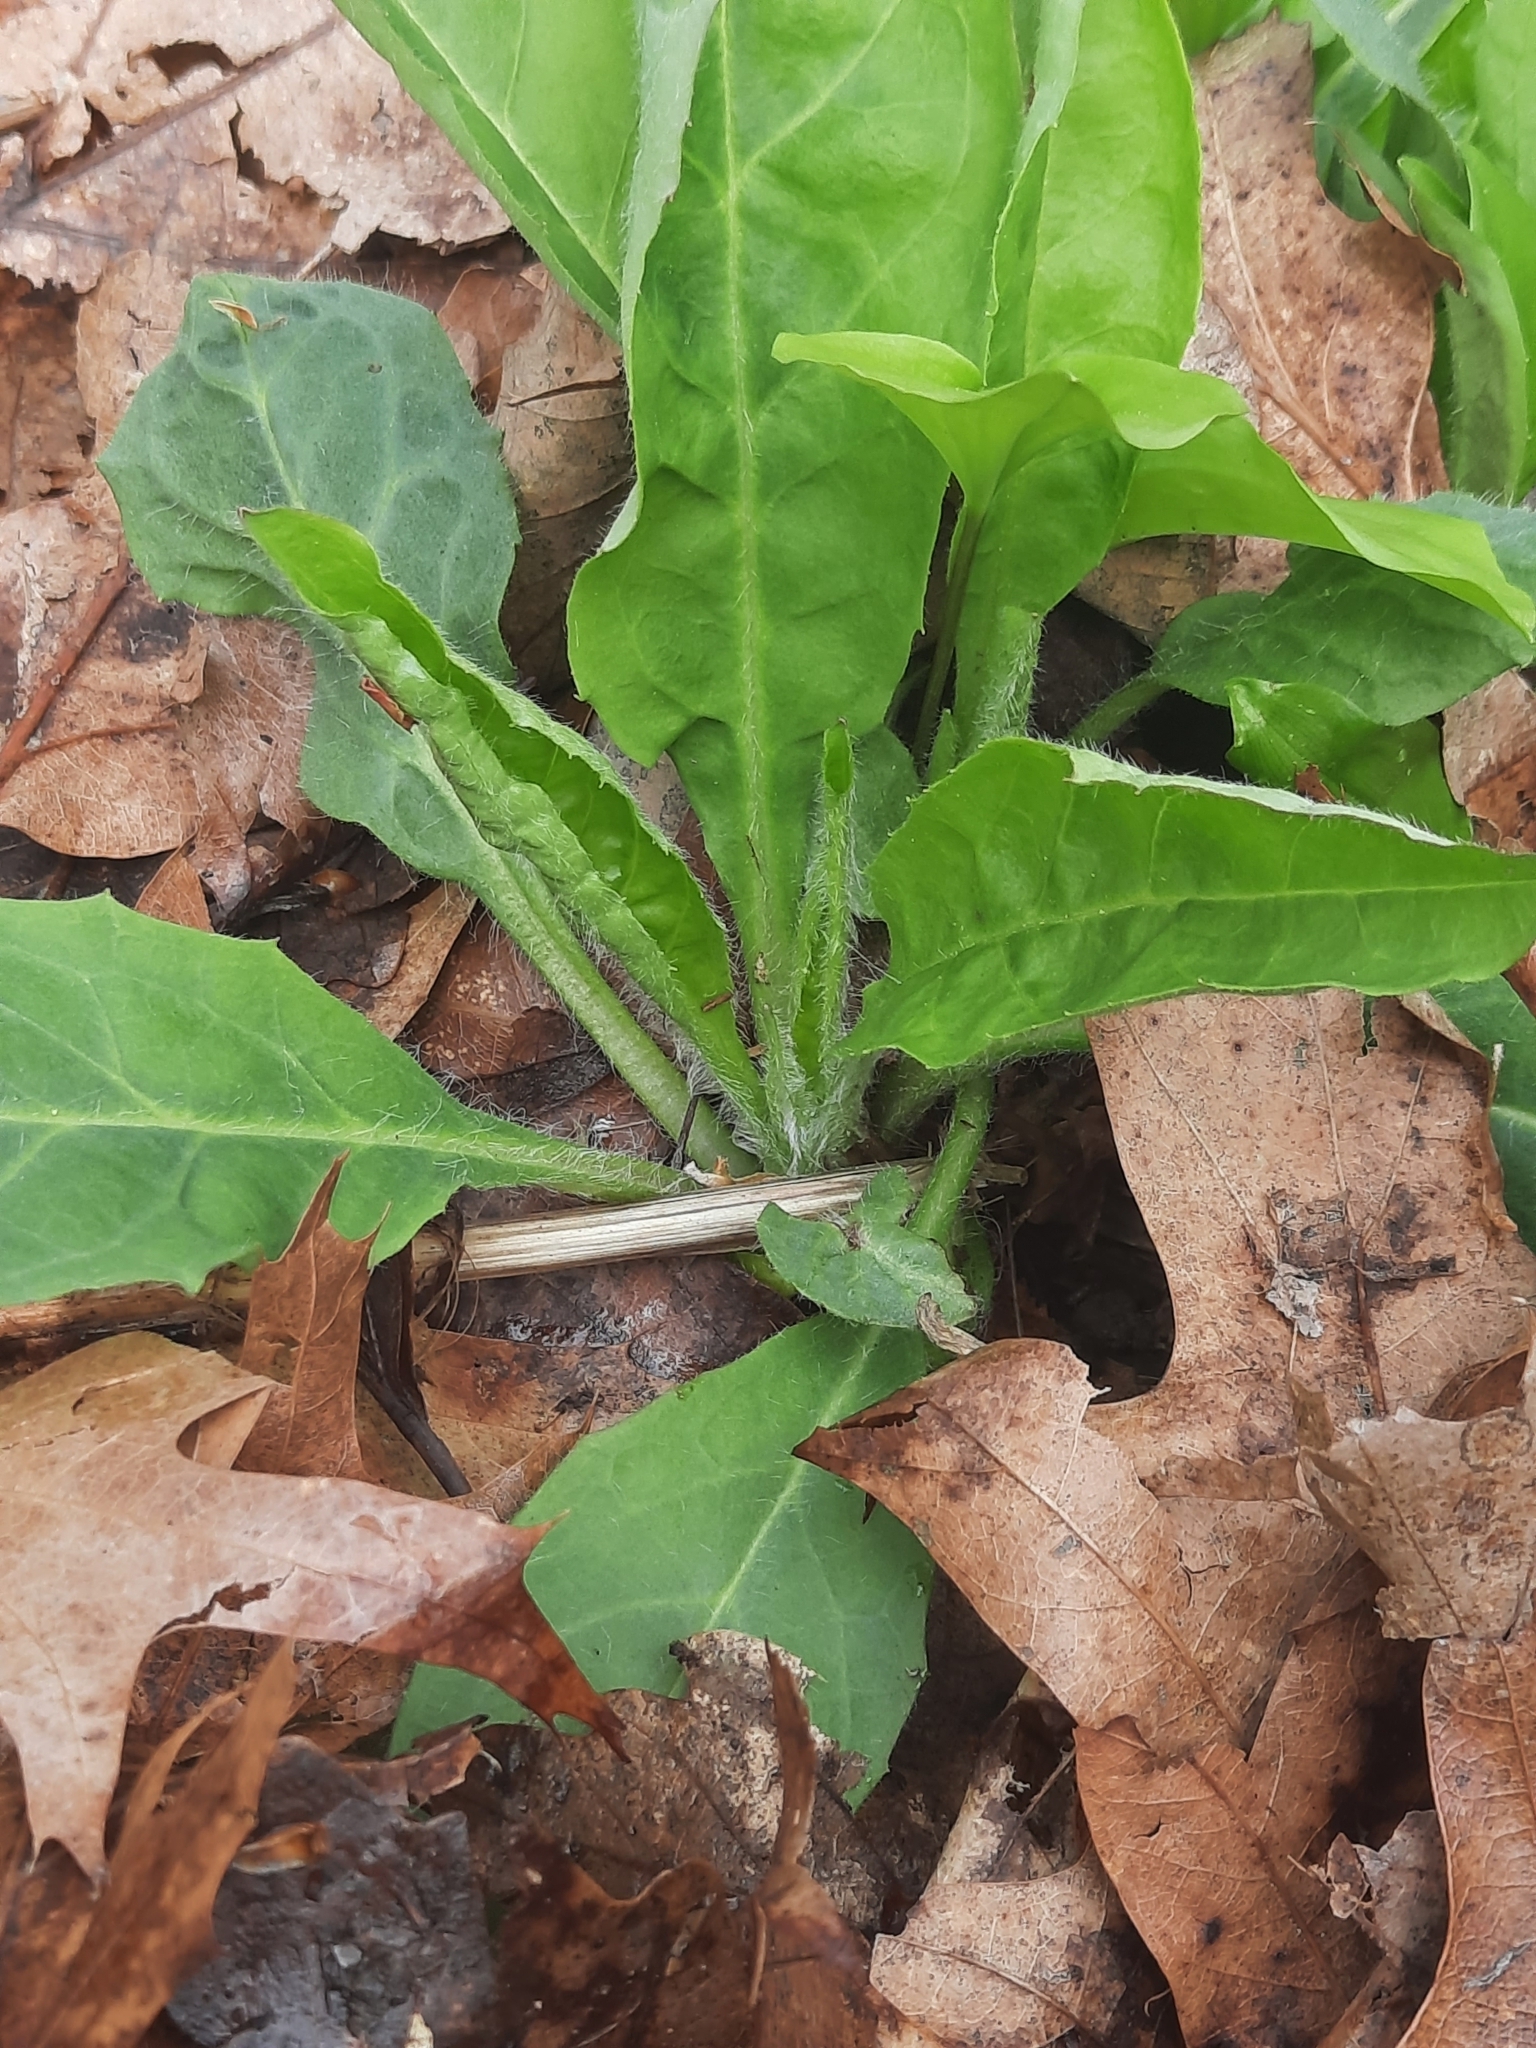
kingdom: Plantae
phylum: Tracheophyta
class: Magnoliopsida
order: Brassicales
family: Brassicaceae
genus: Hesperis
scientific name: Hesperis matronalis
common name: Dame's-violet
